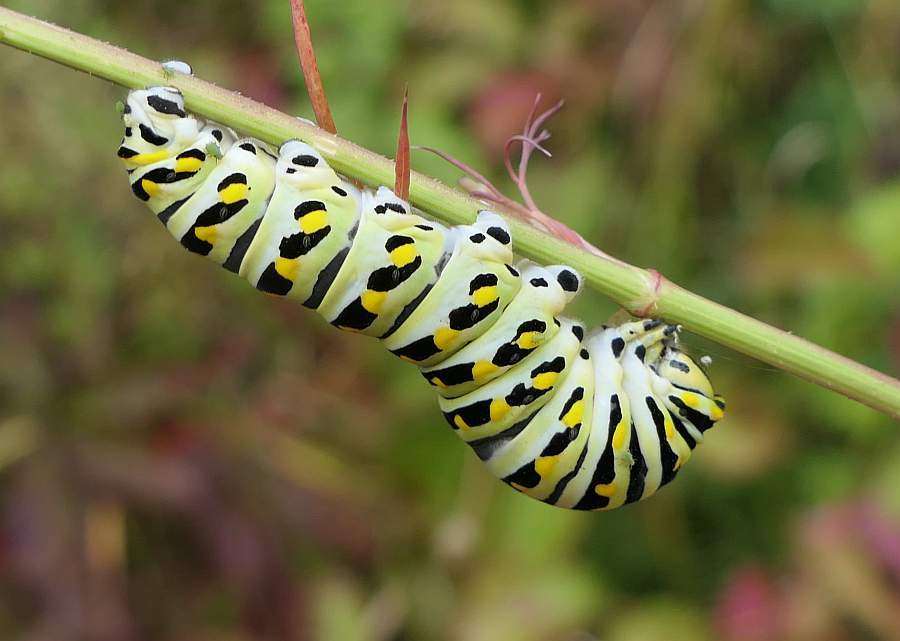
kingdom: Animalia
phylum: Arthropoda
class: Insecta
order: Lepidoptera
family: Papilionidae
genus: Papilio
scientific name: Papilio polyxenes
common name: Black swallowtail
